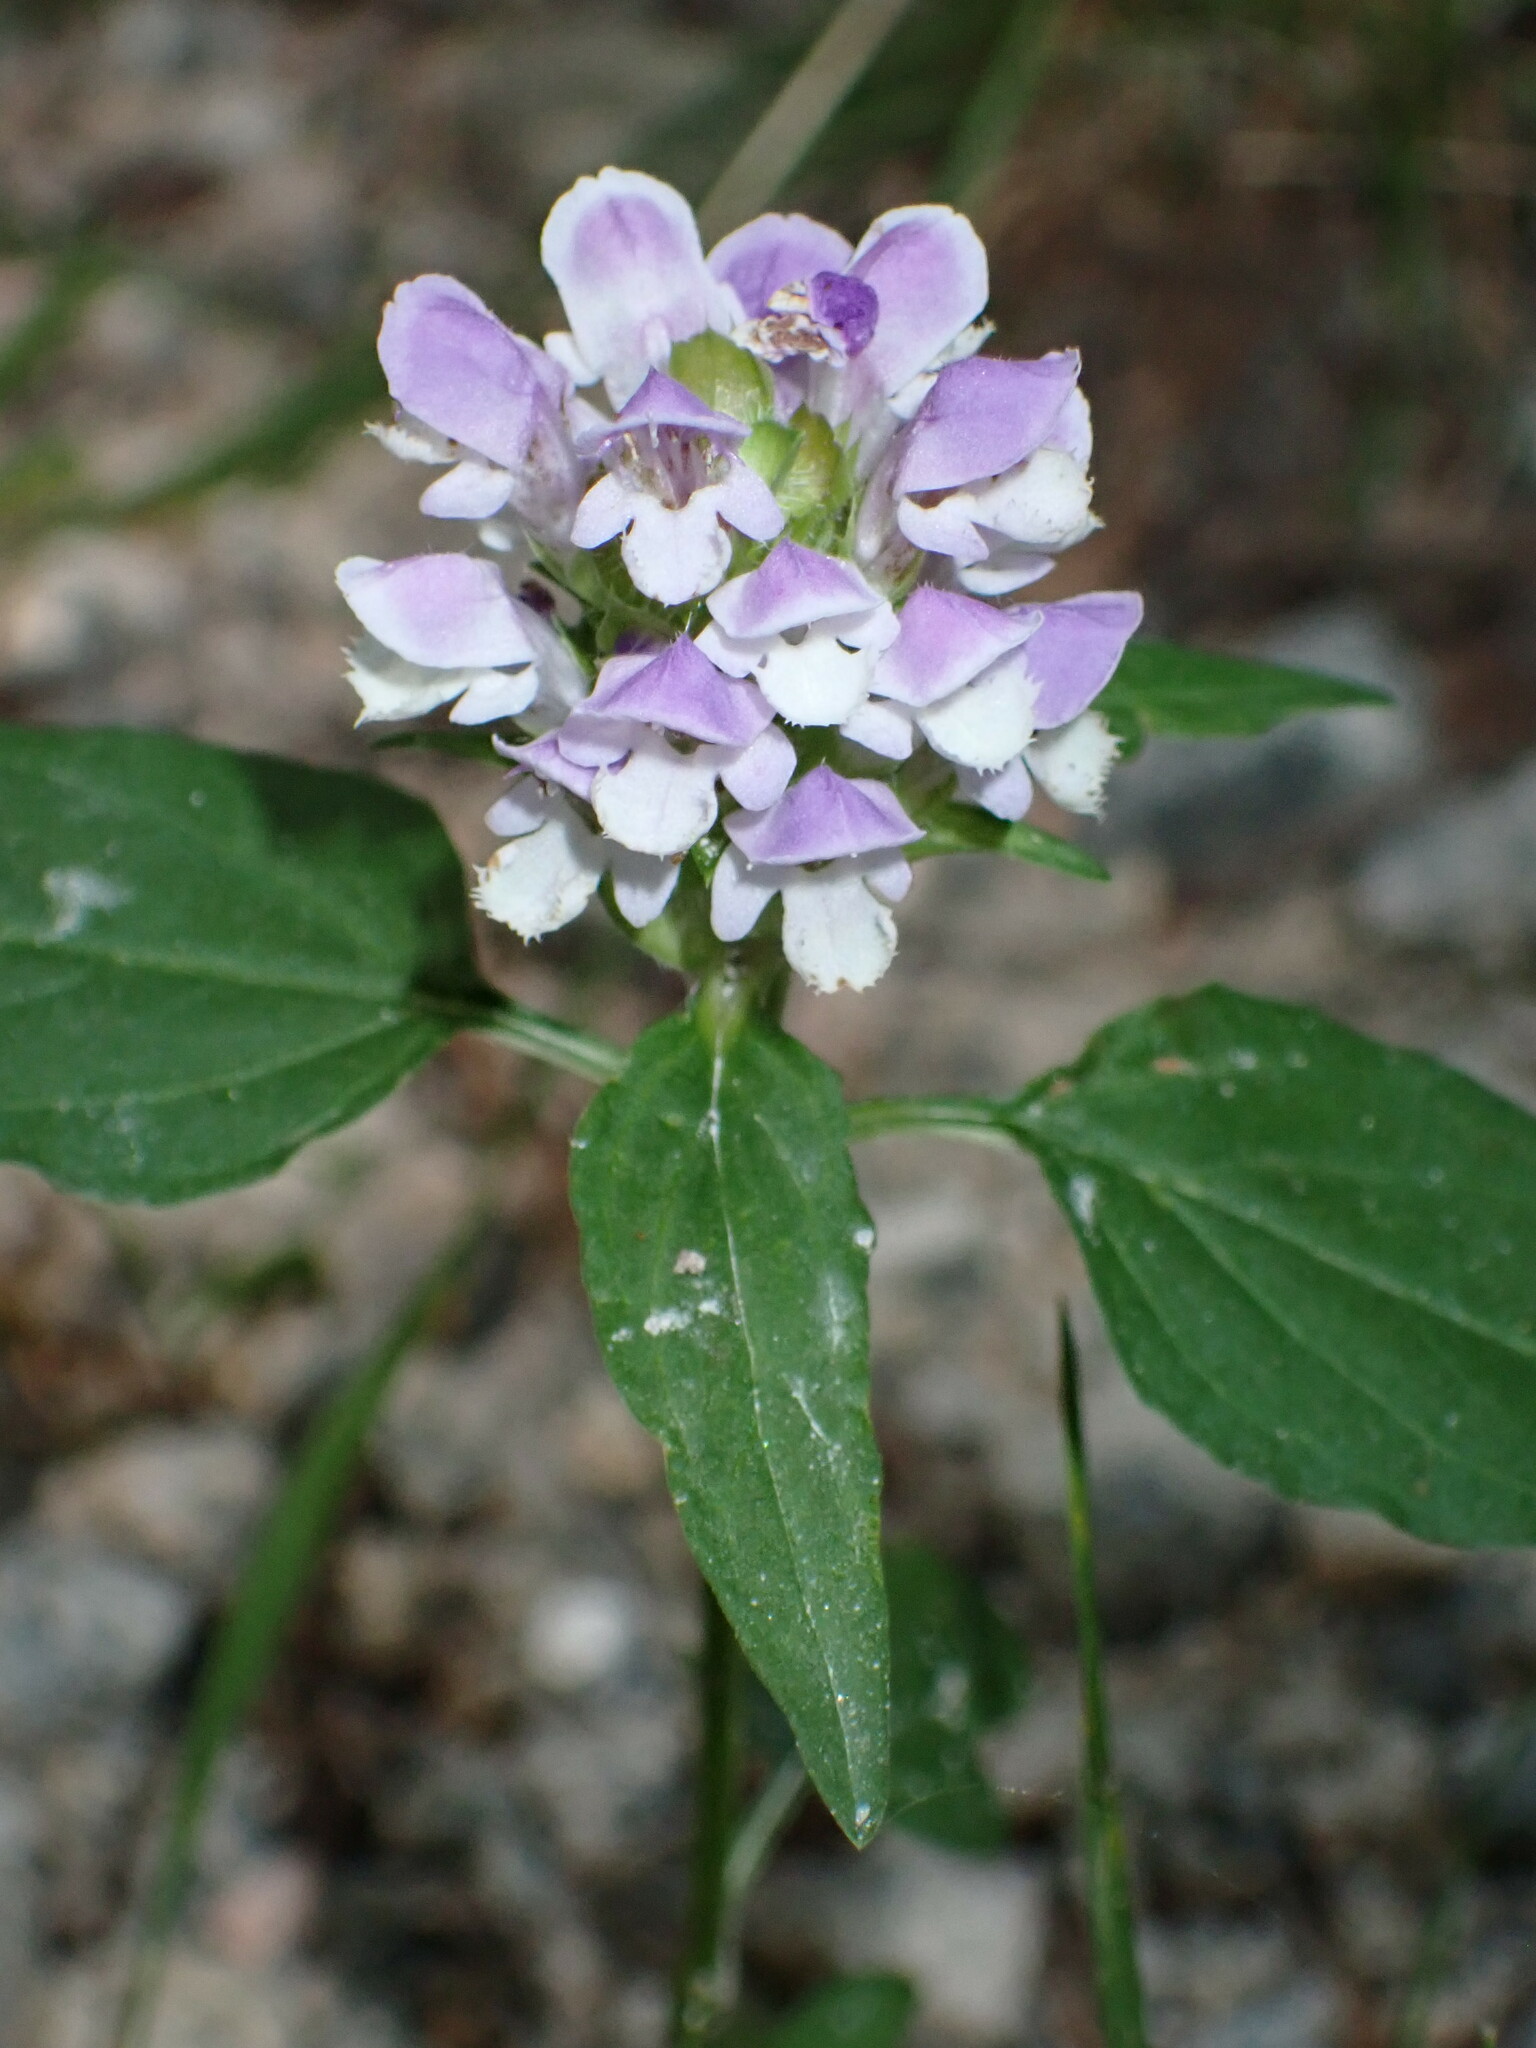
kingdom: Plantae
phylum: Tracheophyta
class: Magnoliopsida
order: Lamiales
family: Lamiaceae
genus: Prunella
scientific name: Prunella vulgaris
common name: Heal-all
